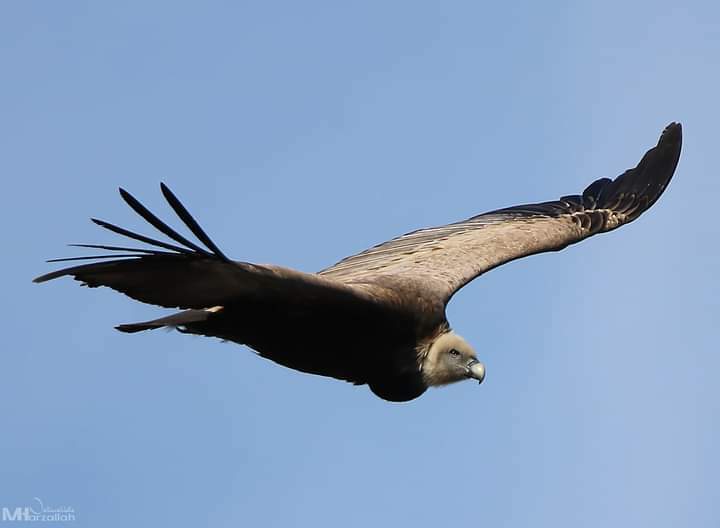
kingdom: Animalia
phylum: Chordata
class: Aves
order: Accipitriformes
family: Accipitridae
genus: Gyps
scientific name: Gyps fulvus
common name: Griffon vulture
